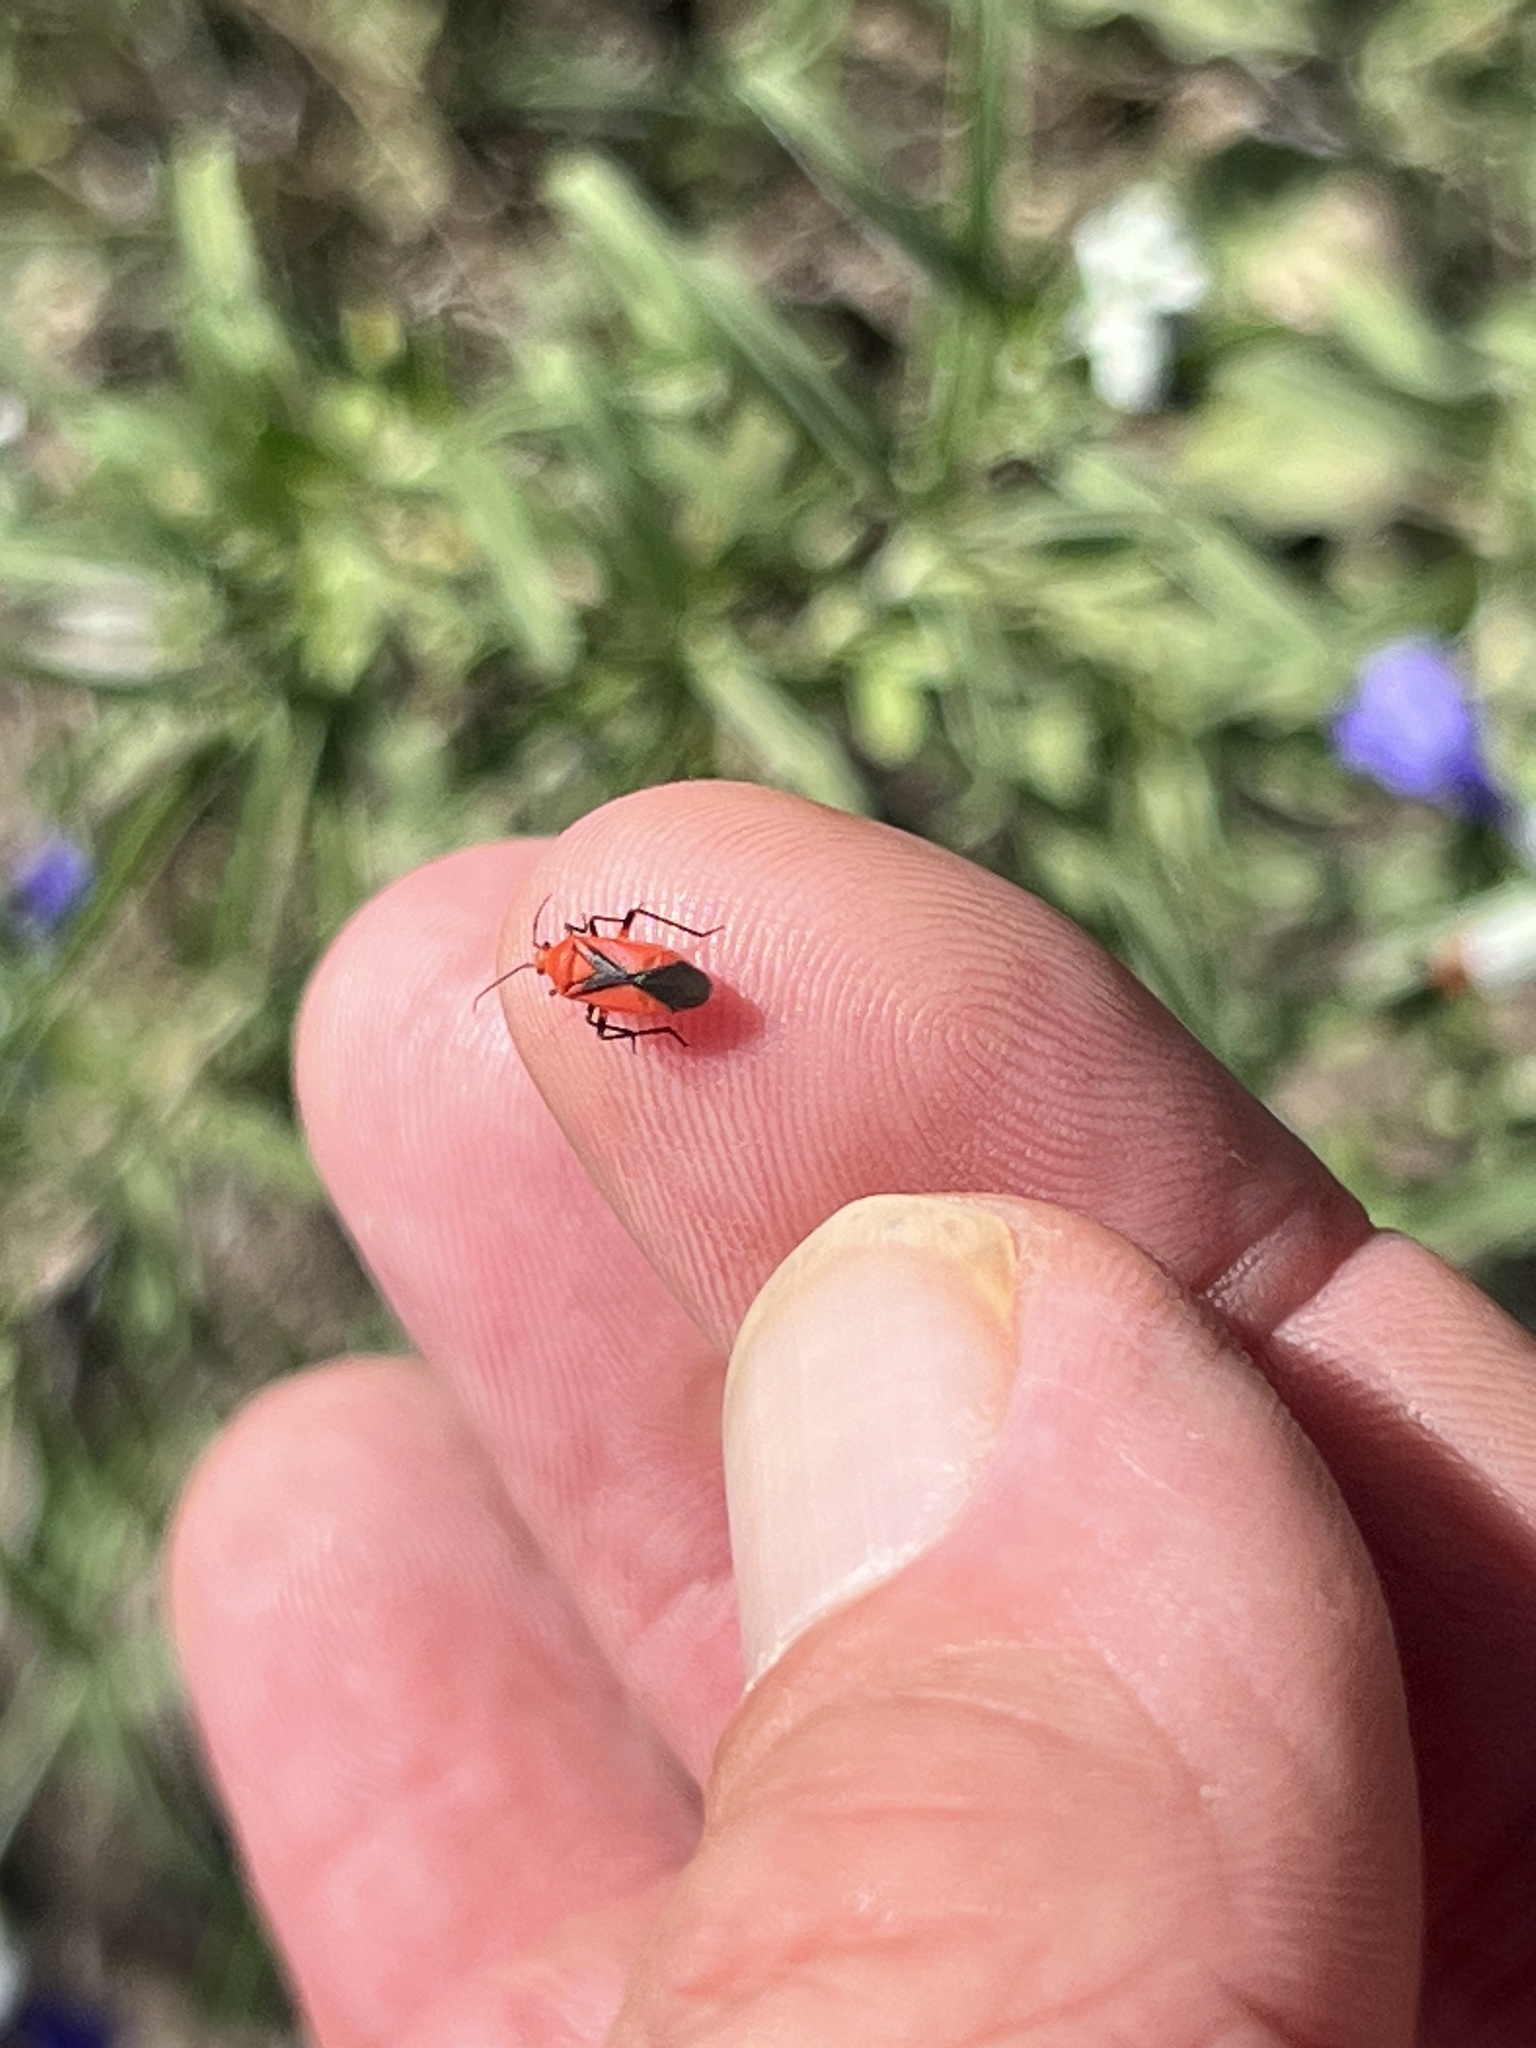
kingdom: Animalia
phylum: Arthropoda
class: Insecta
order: Hemiptera
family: Miridae
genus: Oncerometopus
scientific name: Oncerometopus nigriclavus
